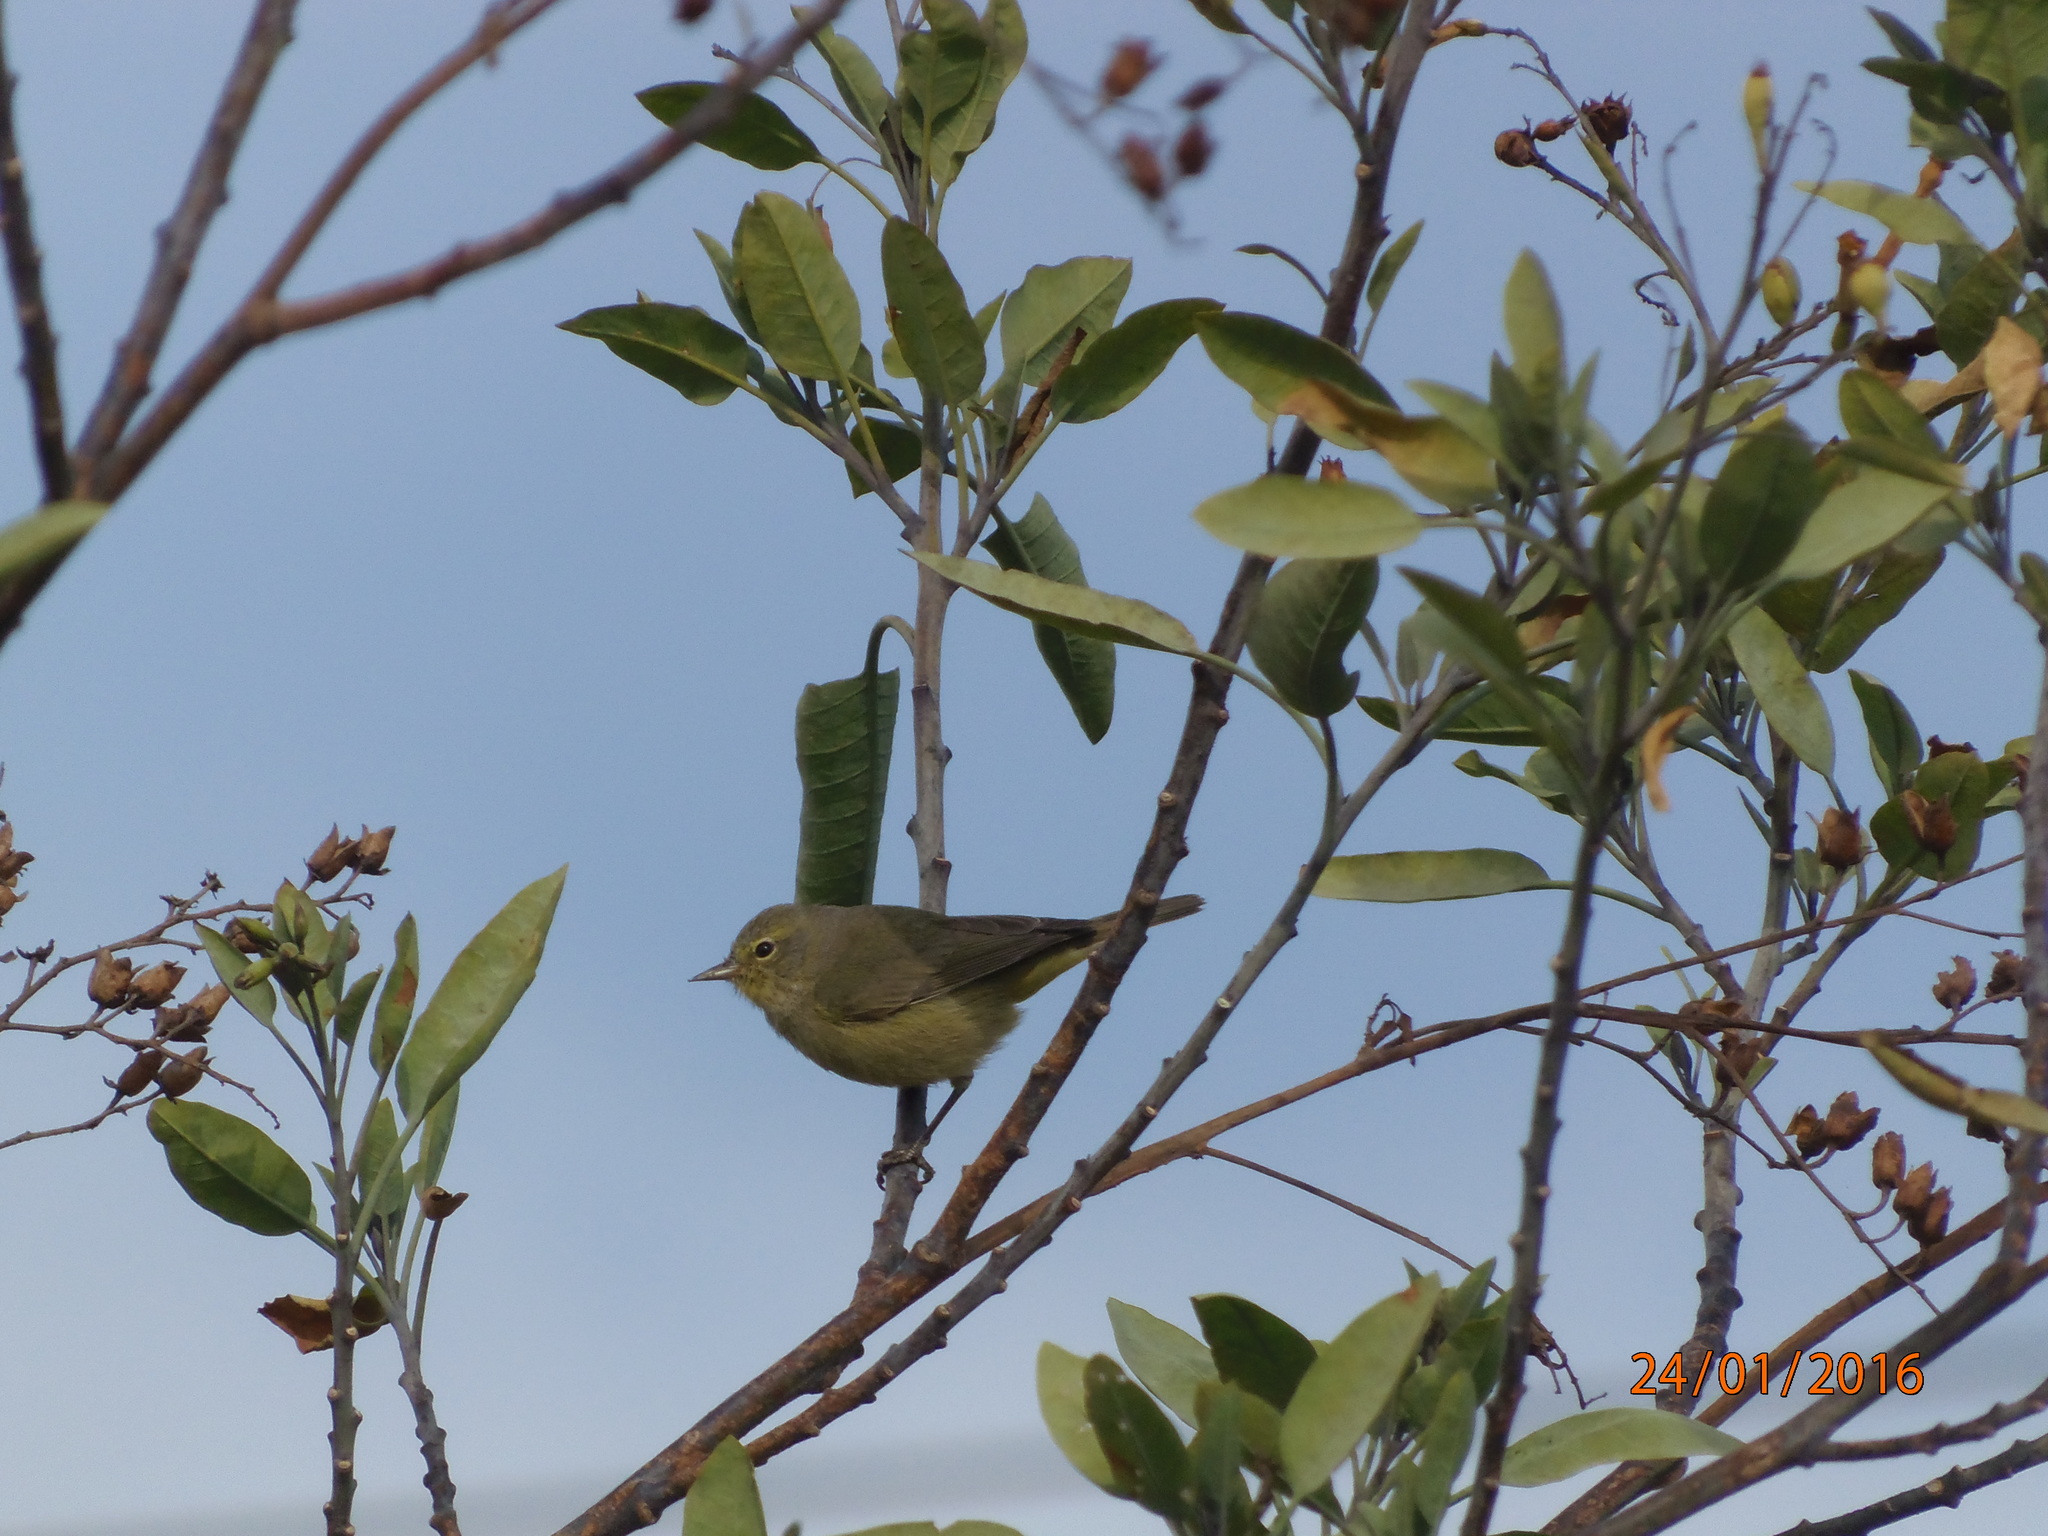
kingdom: Animalia
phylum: Chordata
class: Aves
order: Passeriformes
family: Parulidae
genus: Leiothlypis
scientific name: Leiothlypis celata
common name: Orange-crowned warbler
